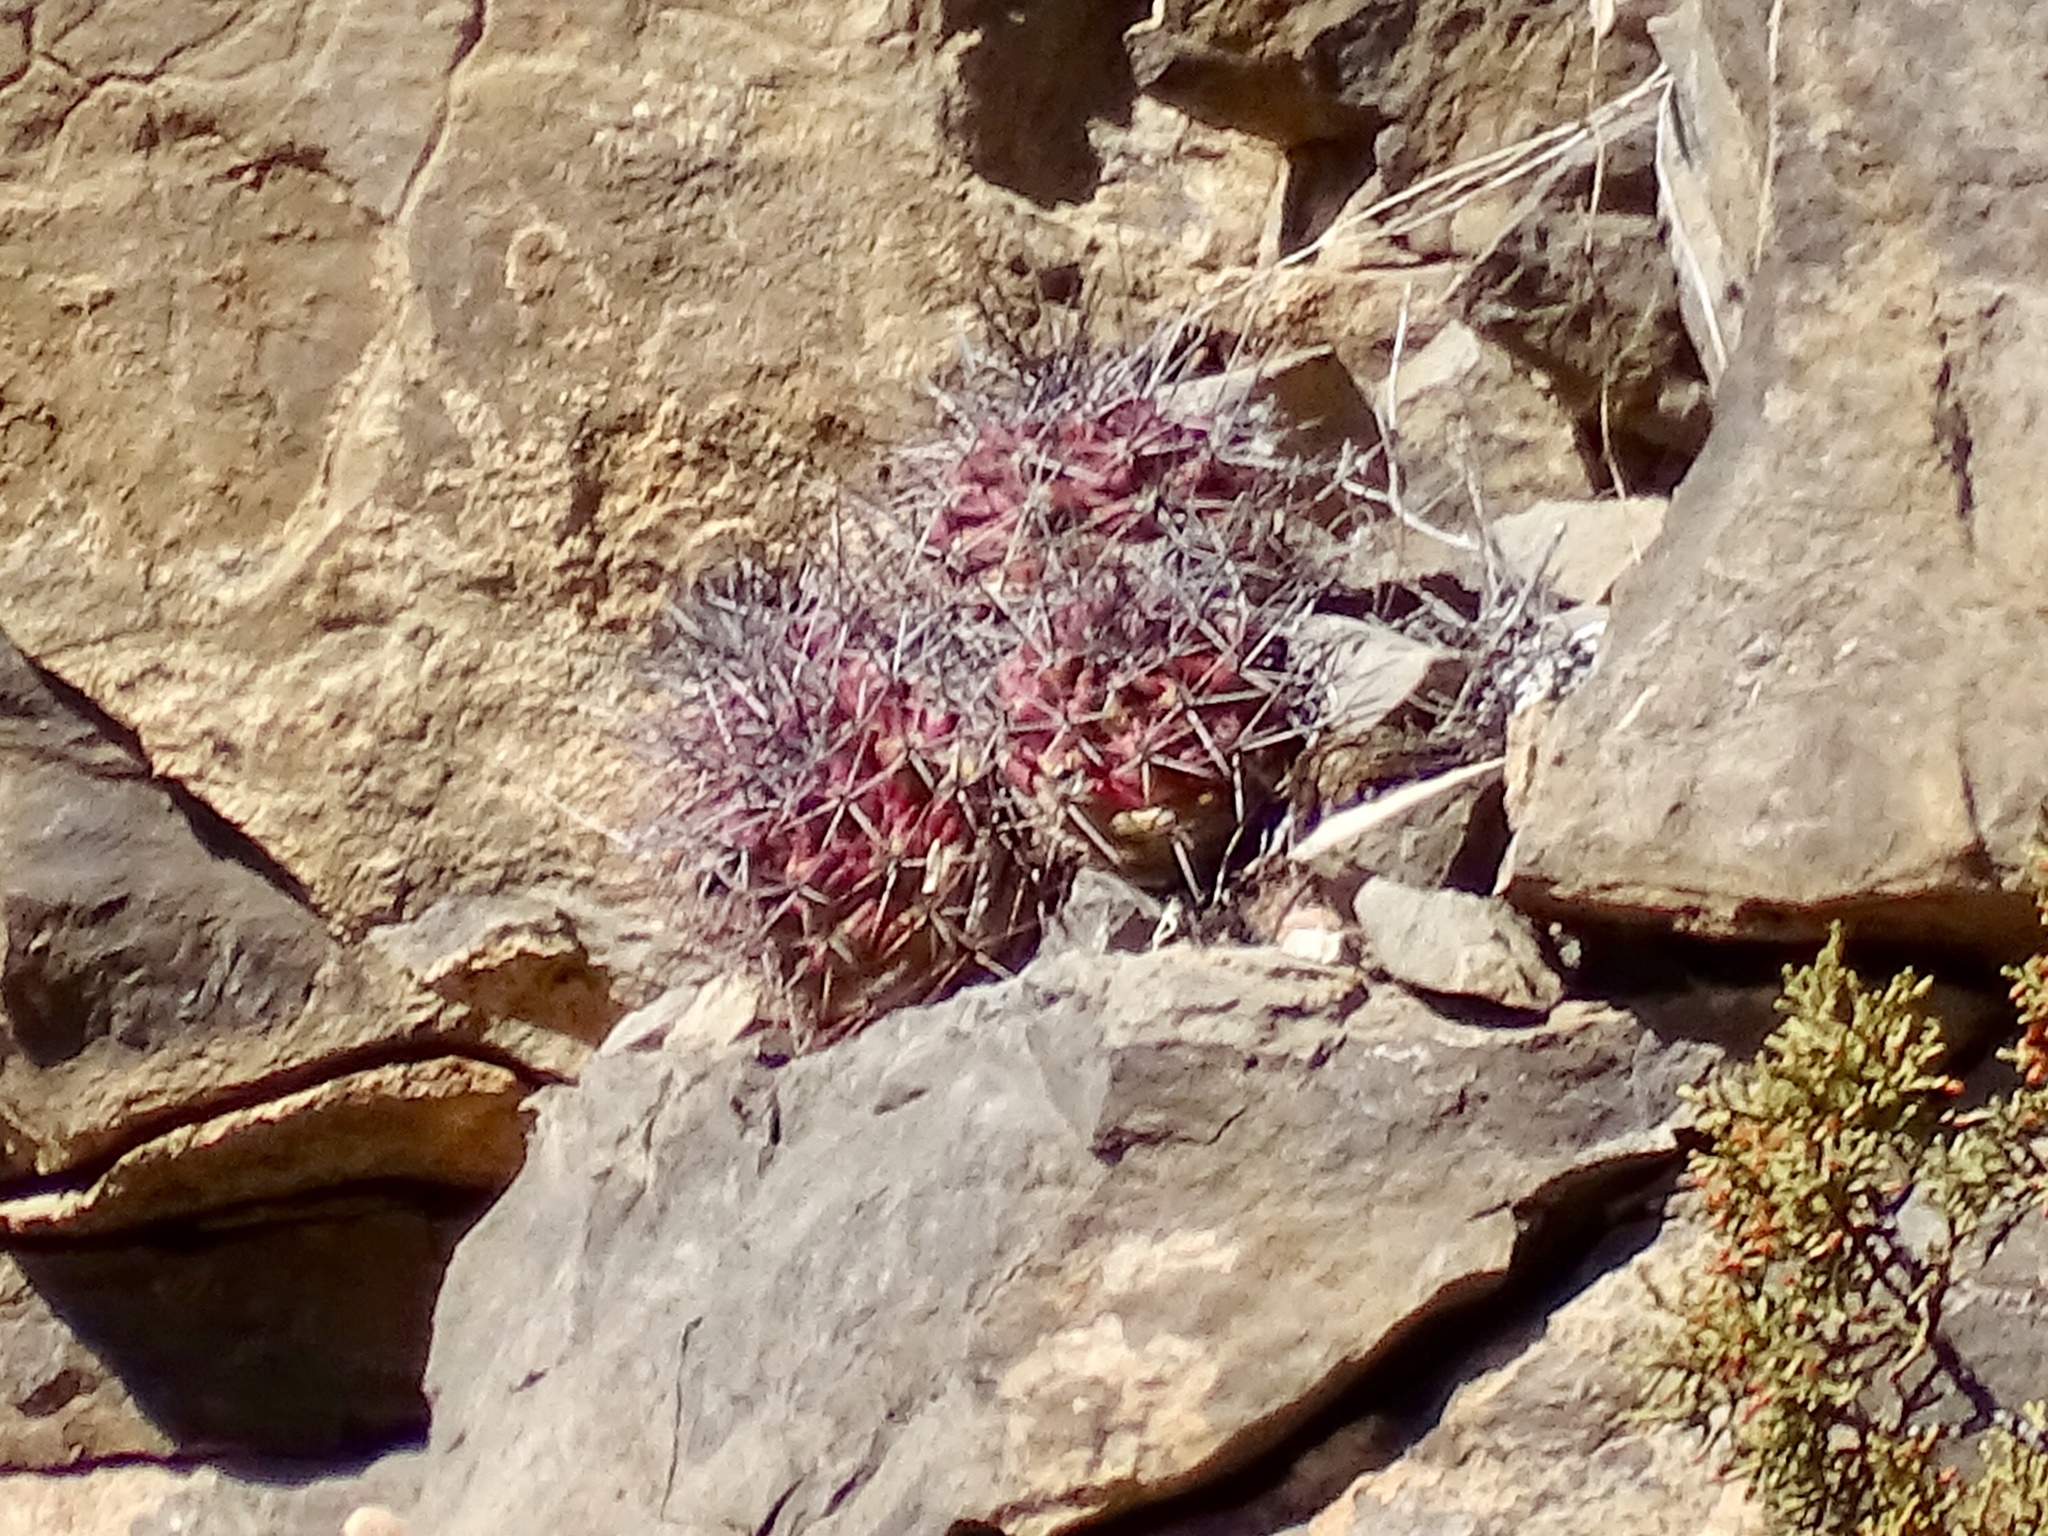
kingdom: Plantae
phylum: Tracheophyta
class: Magnoliopsida
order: Caryophyllales
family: Cactaceae
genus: Echinocereus
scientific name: Echinocereus coccineus
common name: Scarlet hedgehog cactus
